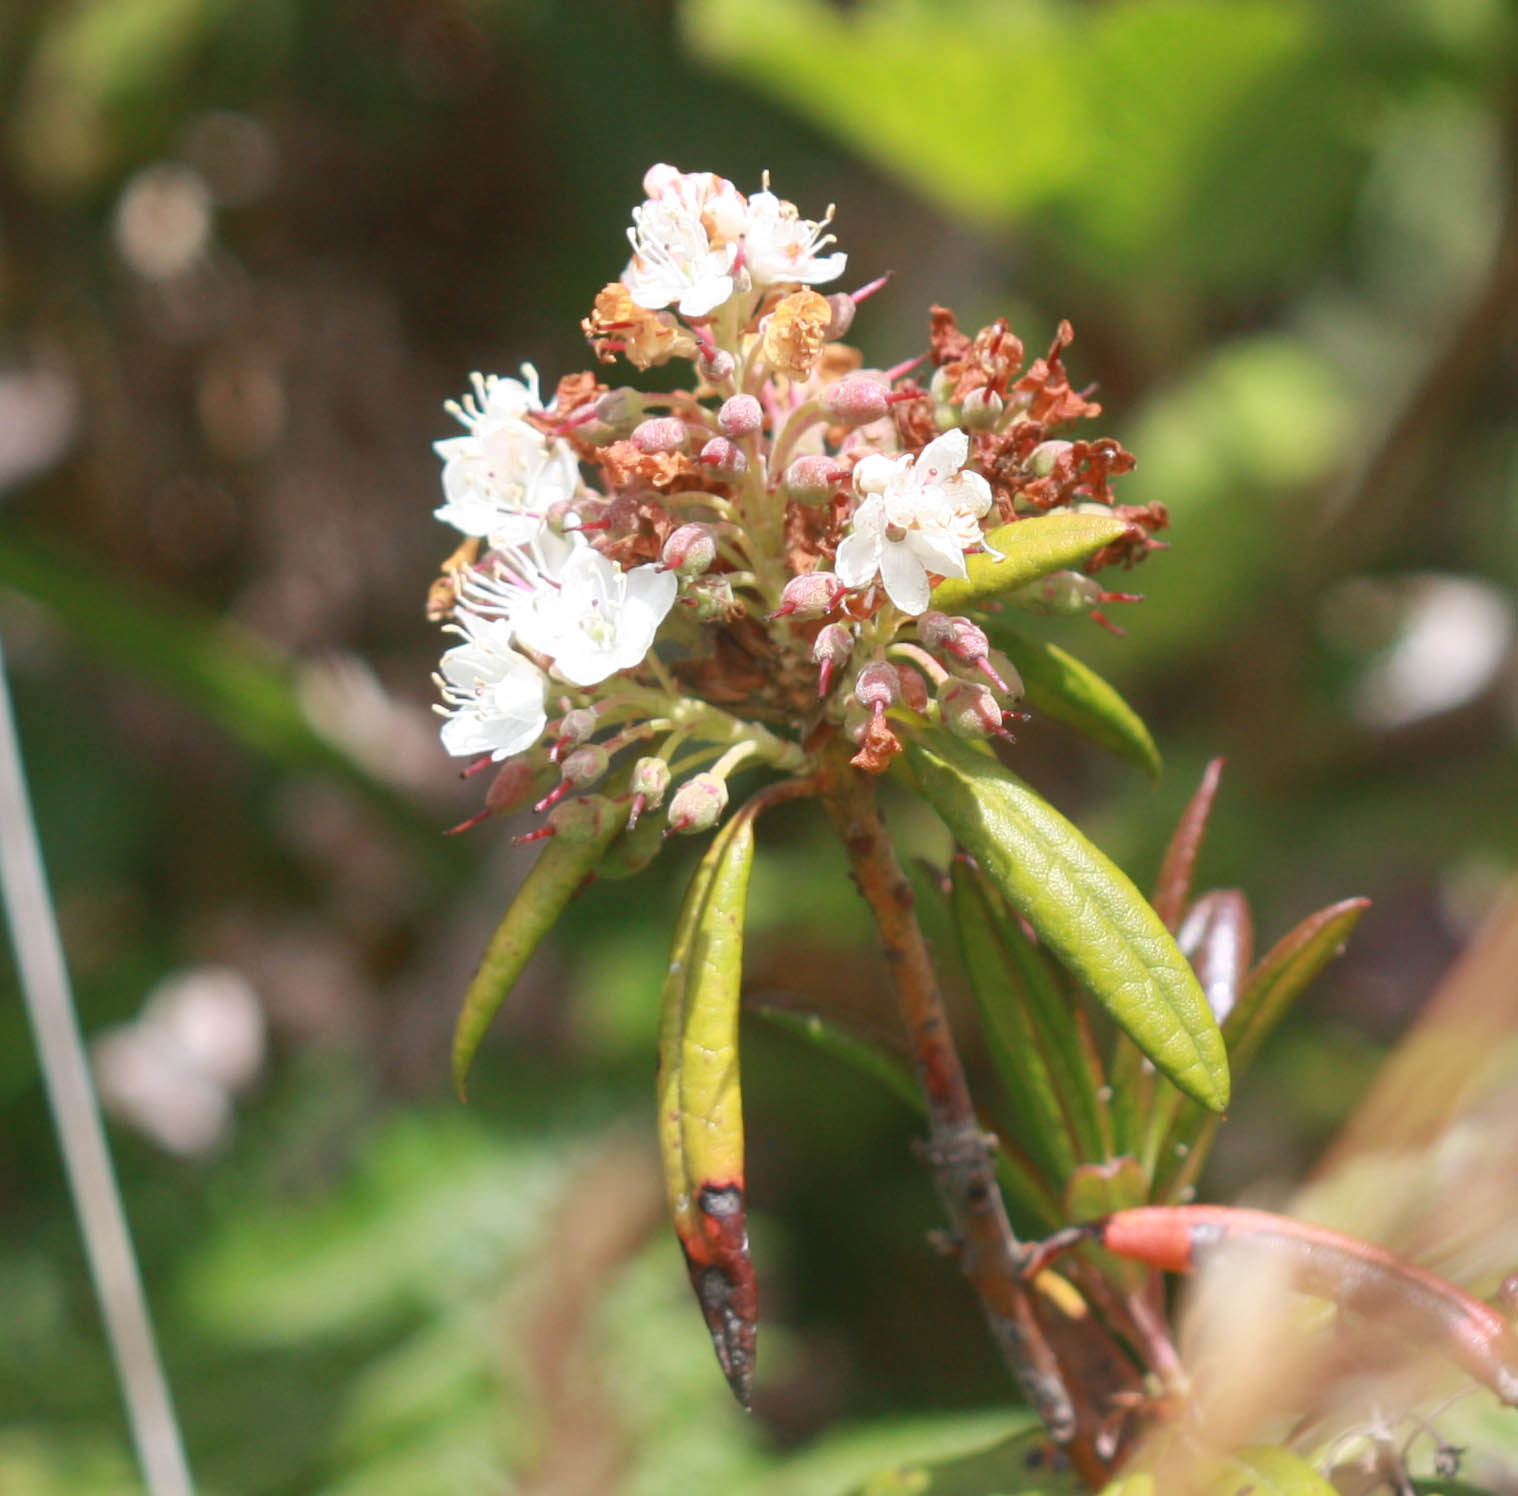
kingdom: Plantae
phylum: Tracheophyta
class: Magnoliopsida
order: Ericales
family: Ericaceae
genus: Rhododendron
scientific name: Rhododendron columbianum
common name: Western labrador tea
